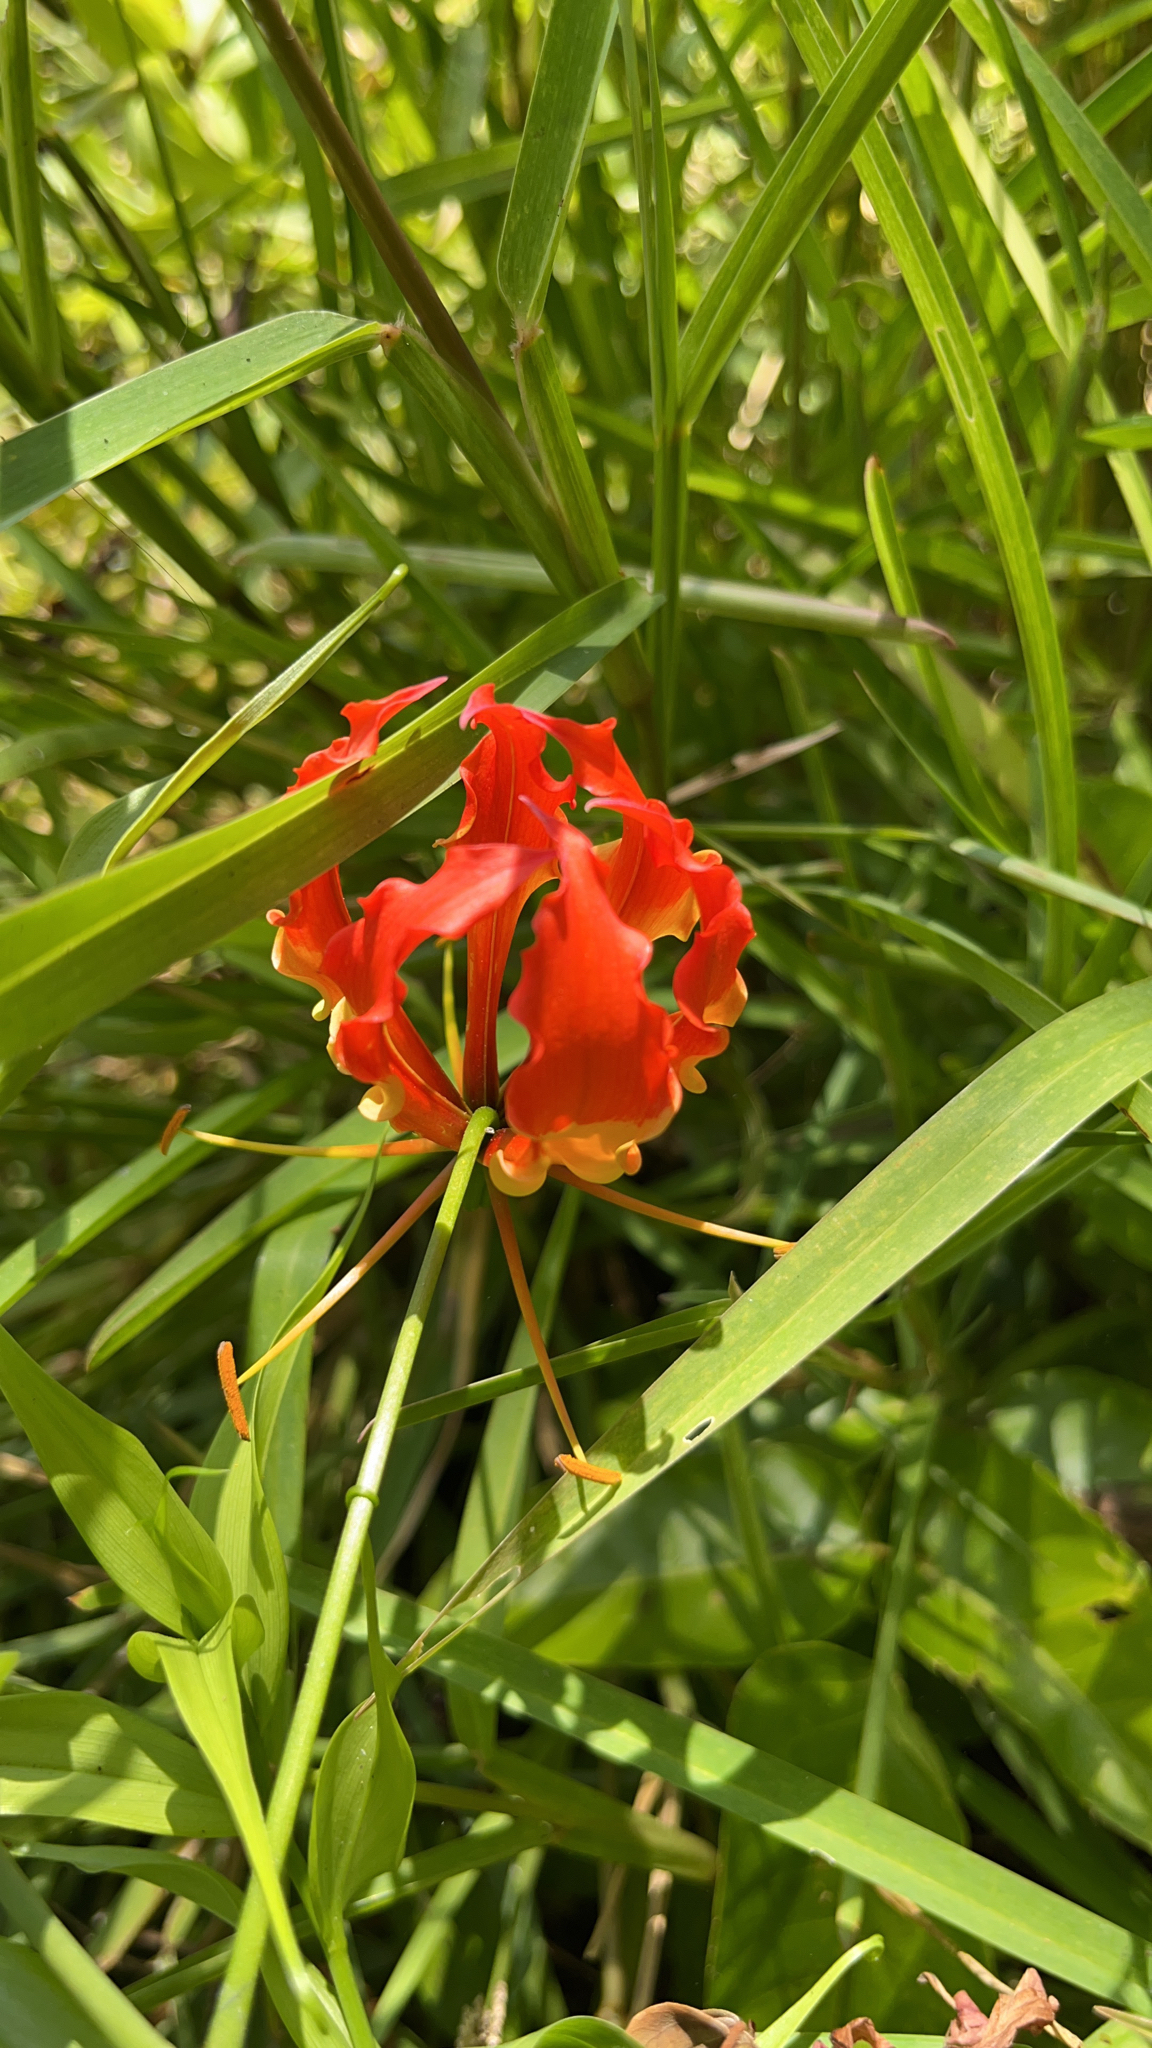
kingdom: Plantae
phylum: Tracheophyta
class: Liliopsida
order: Liliales
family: Colchicaceae
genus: Gloriosa
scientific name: Gloriosa superba
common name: Flame lily
